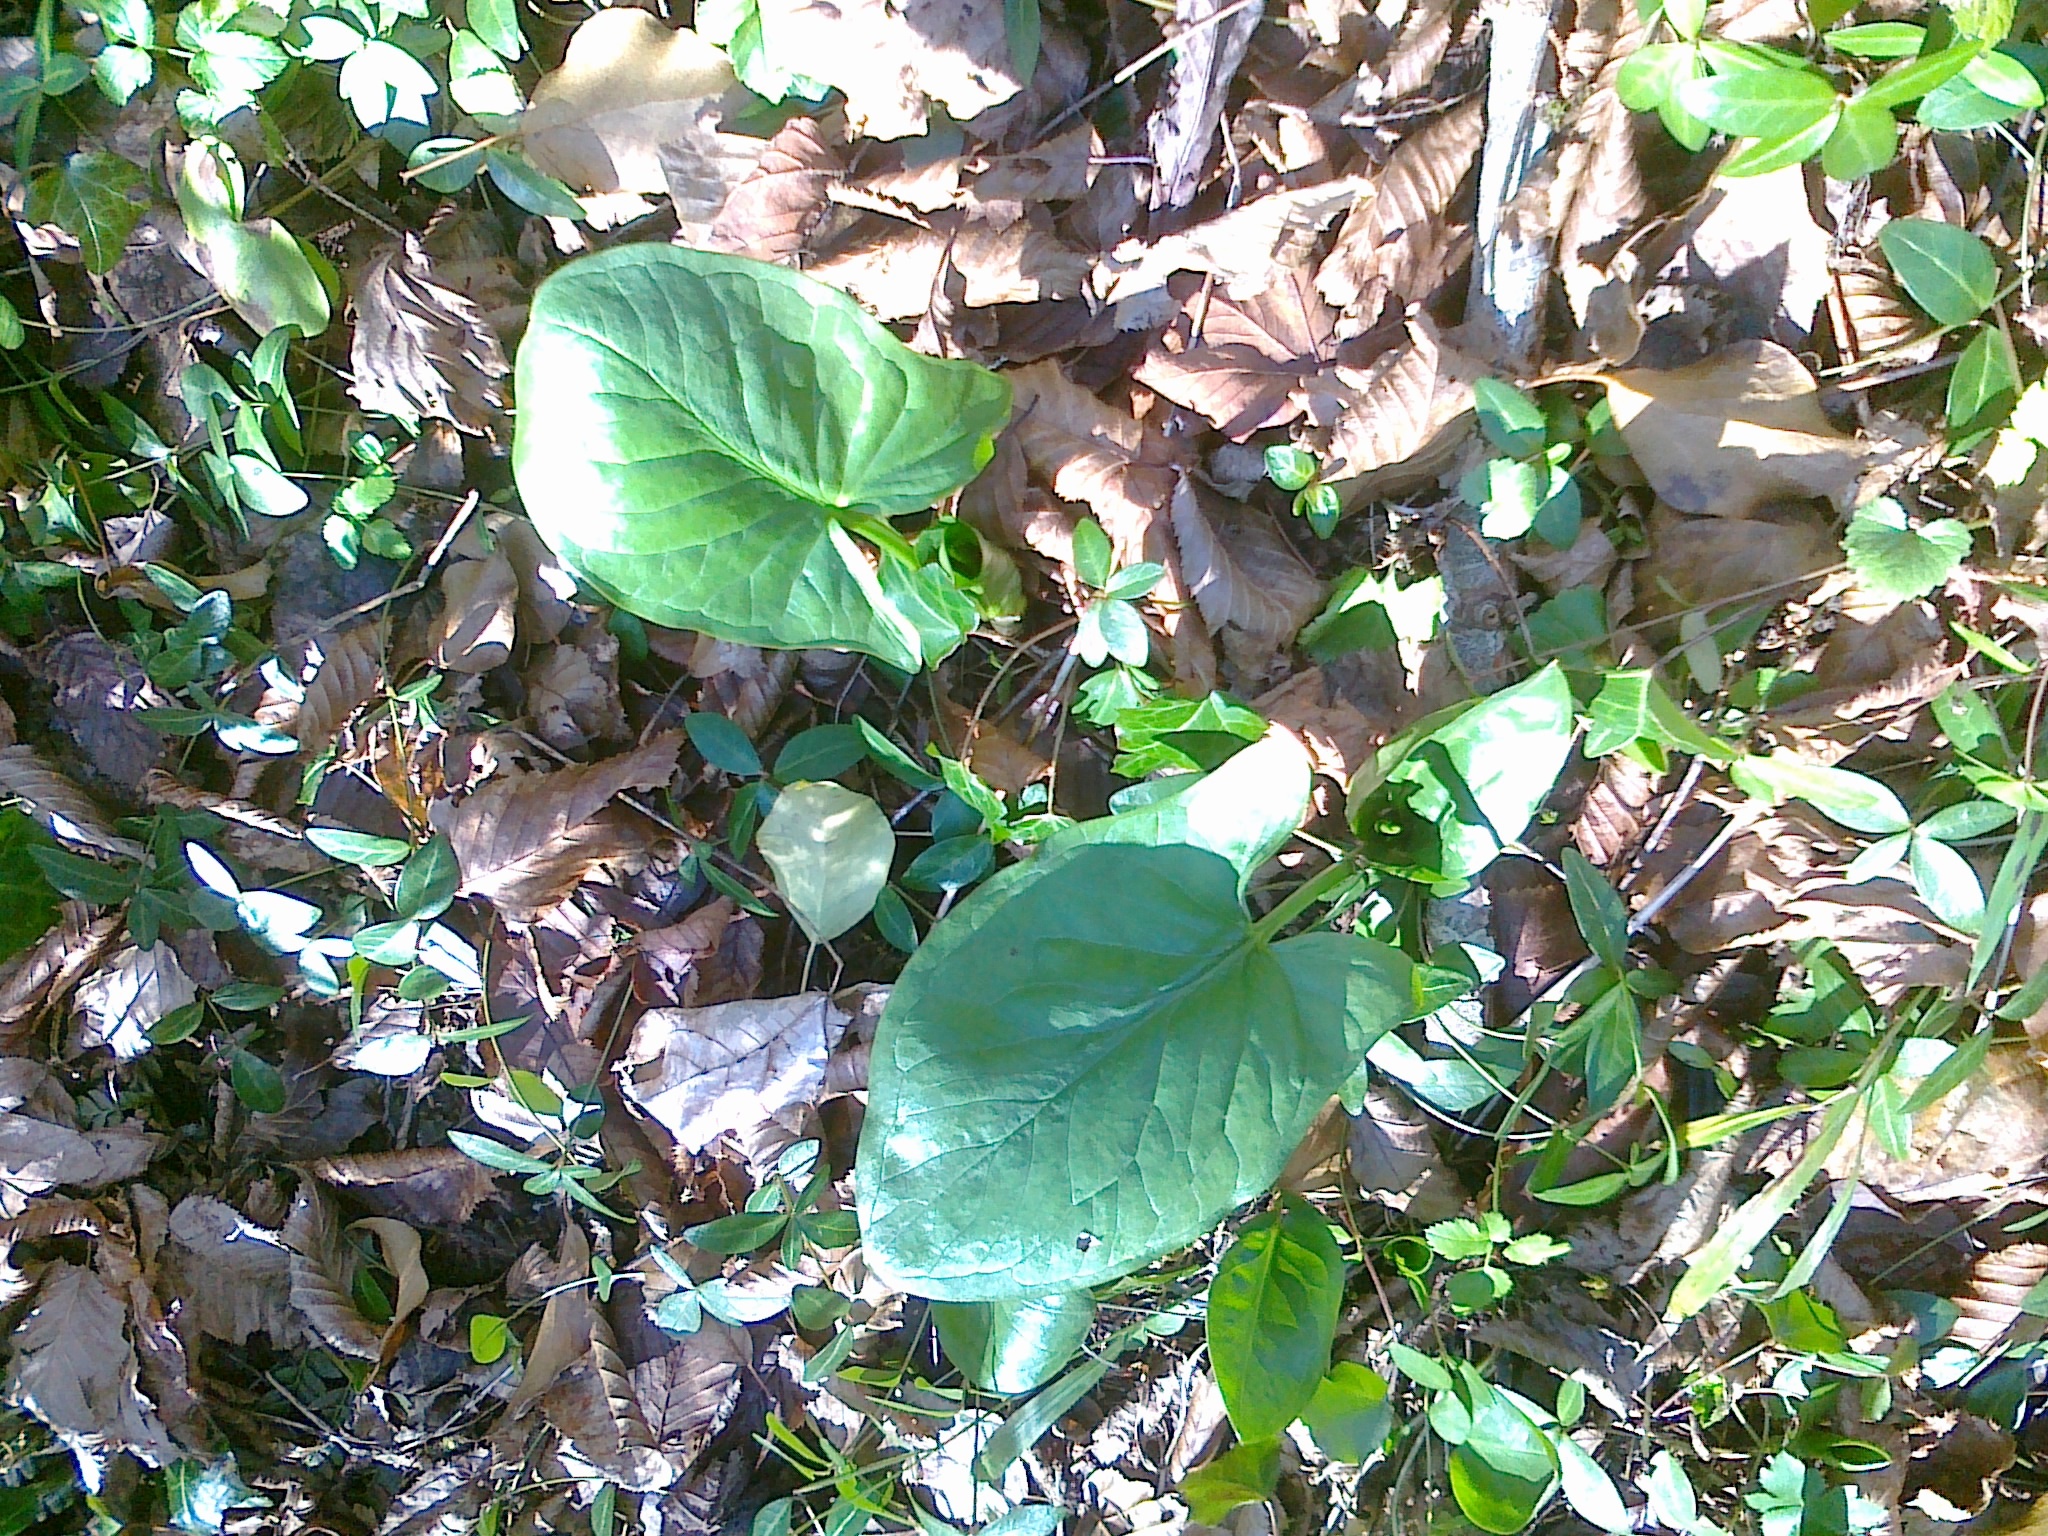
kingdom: Plantae
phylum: Tracheophyta
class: Liliopsida
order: Alismatales
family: Araceae
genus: Arum
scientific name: Arum maculatum
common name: Lords-and-ladies
